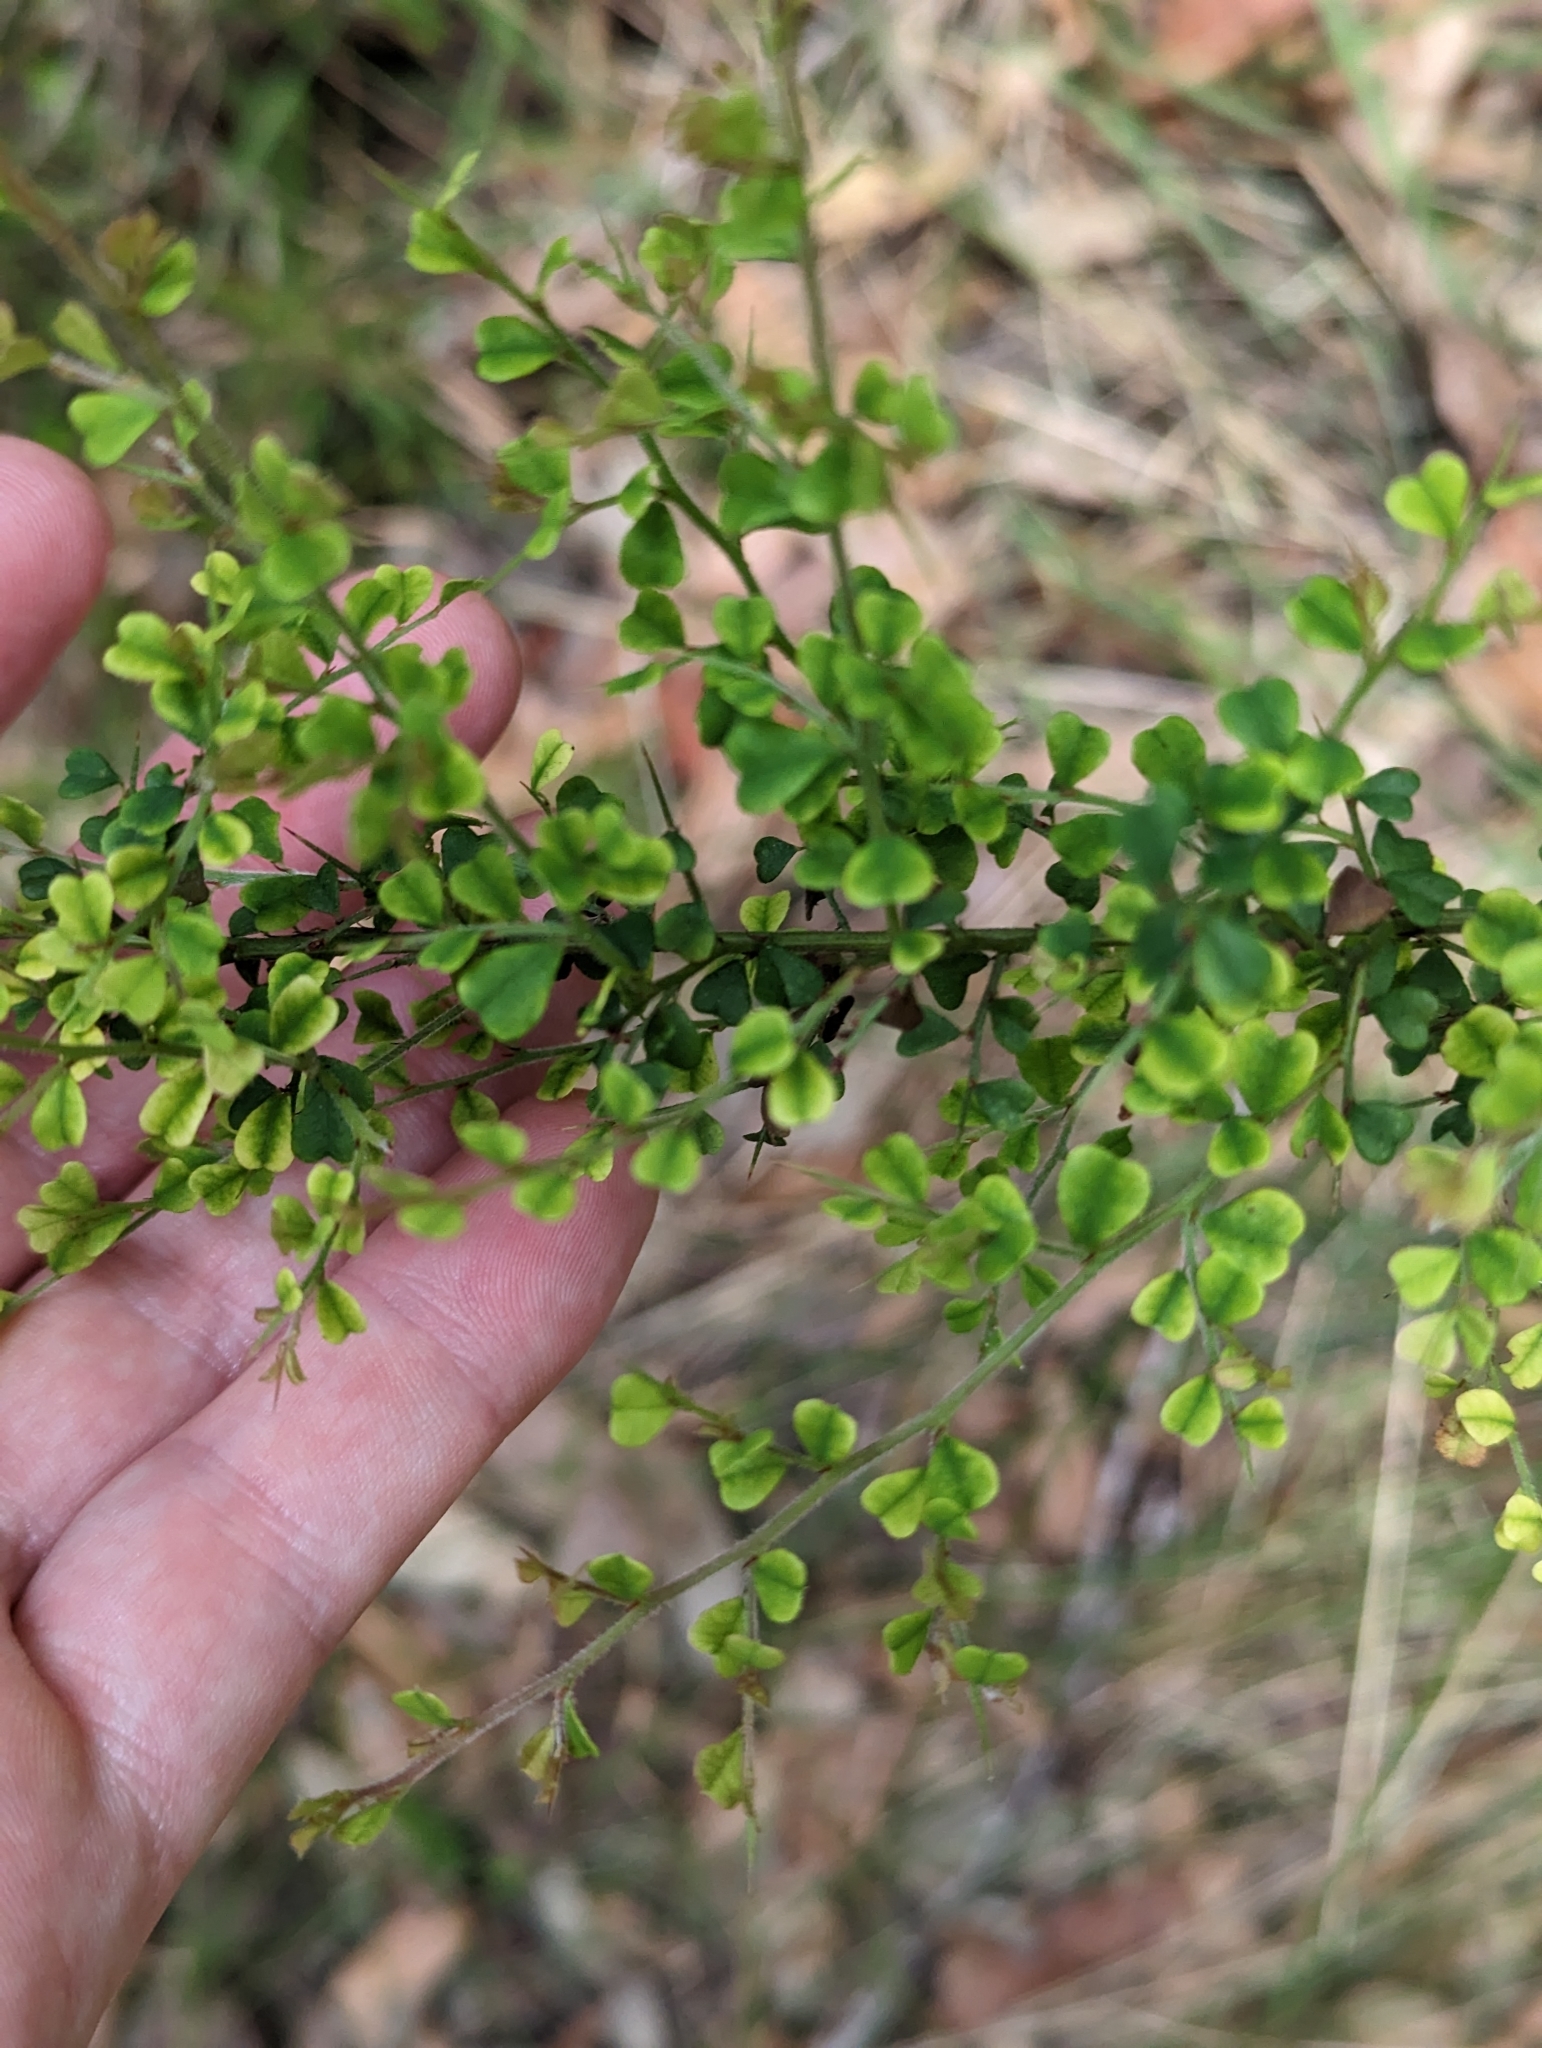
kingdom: Plantae
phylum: Tracheophyta
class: Polypodiopsida
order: Polypodiales
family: Lindsaeaceae
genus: Lindsaea
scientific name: Lindsaea microphylla
